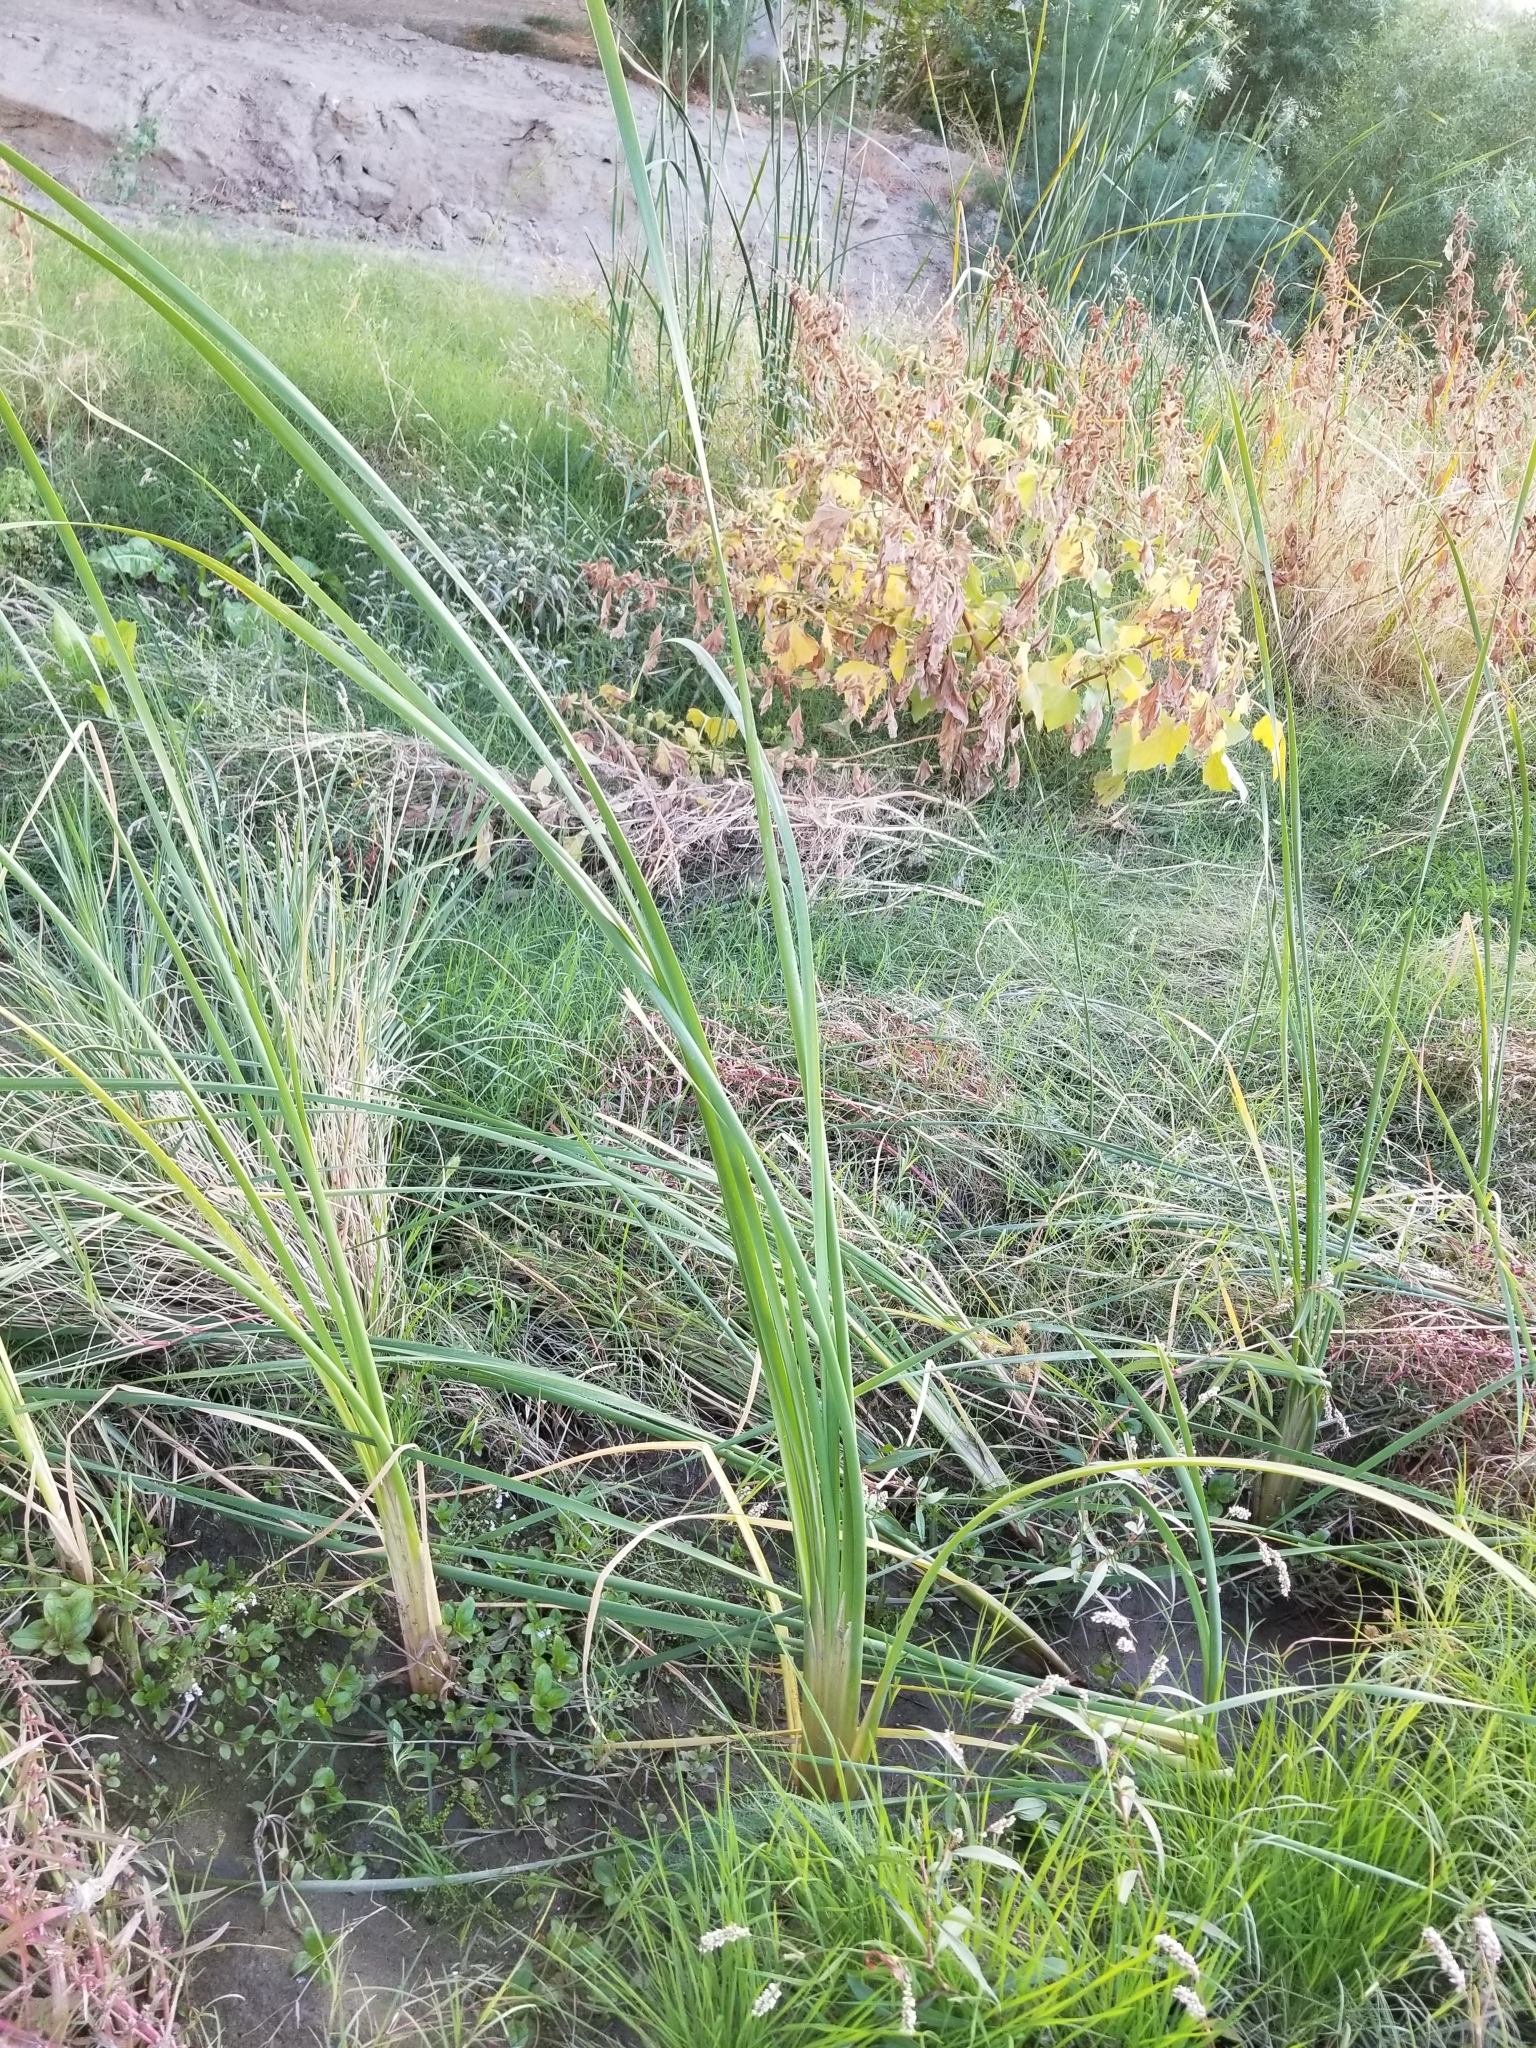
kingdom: Plantae
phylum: Tracheophyta
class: Liliopsida
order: Poales
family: Typhaceae
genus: Typha
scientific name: Typha
